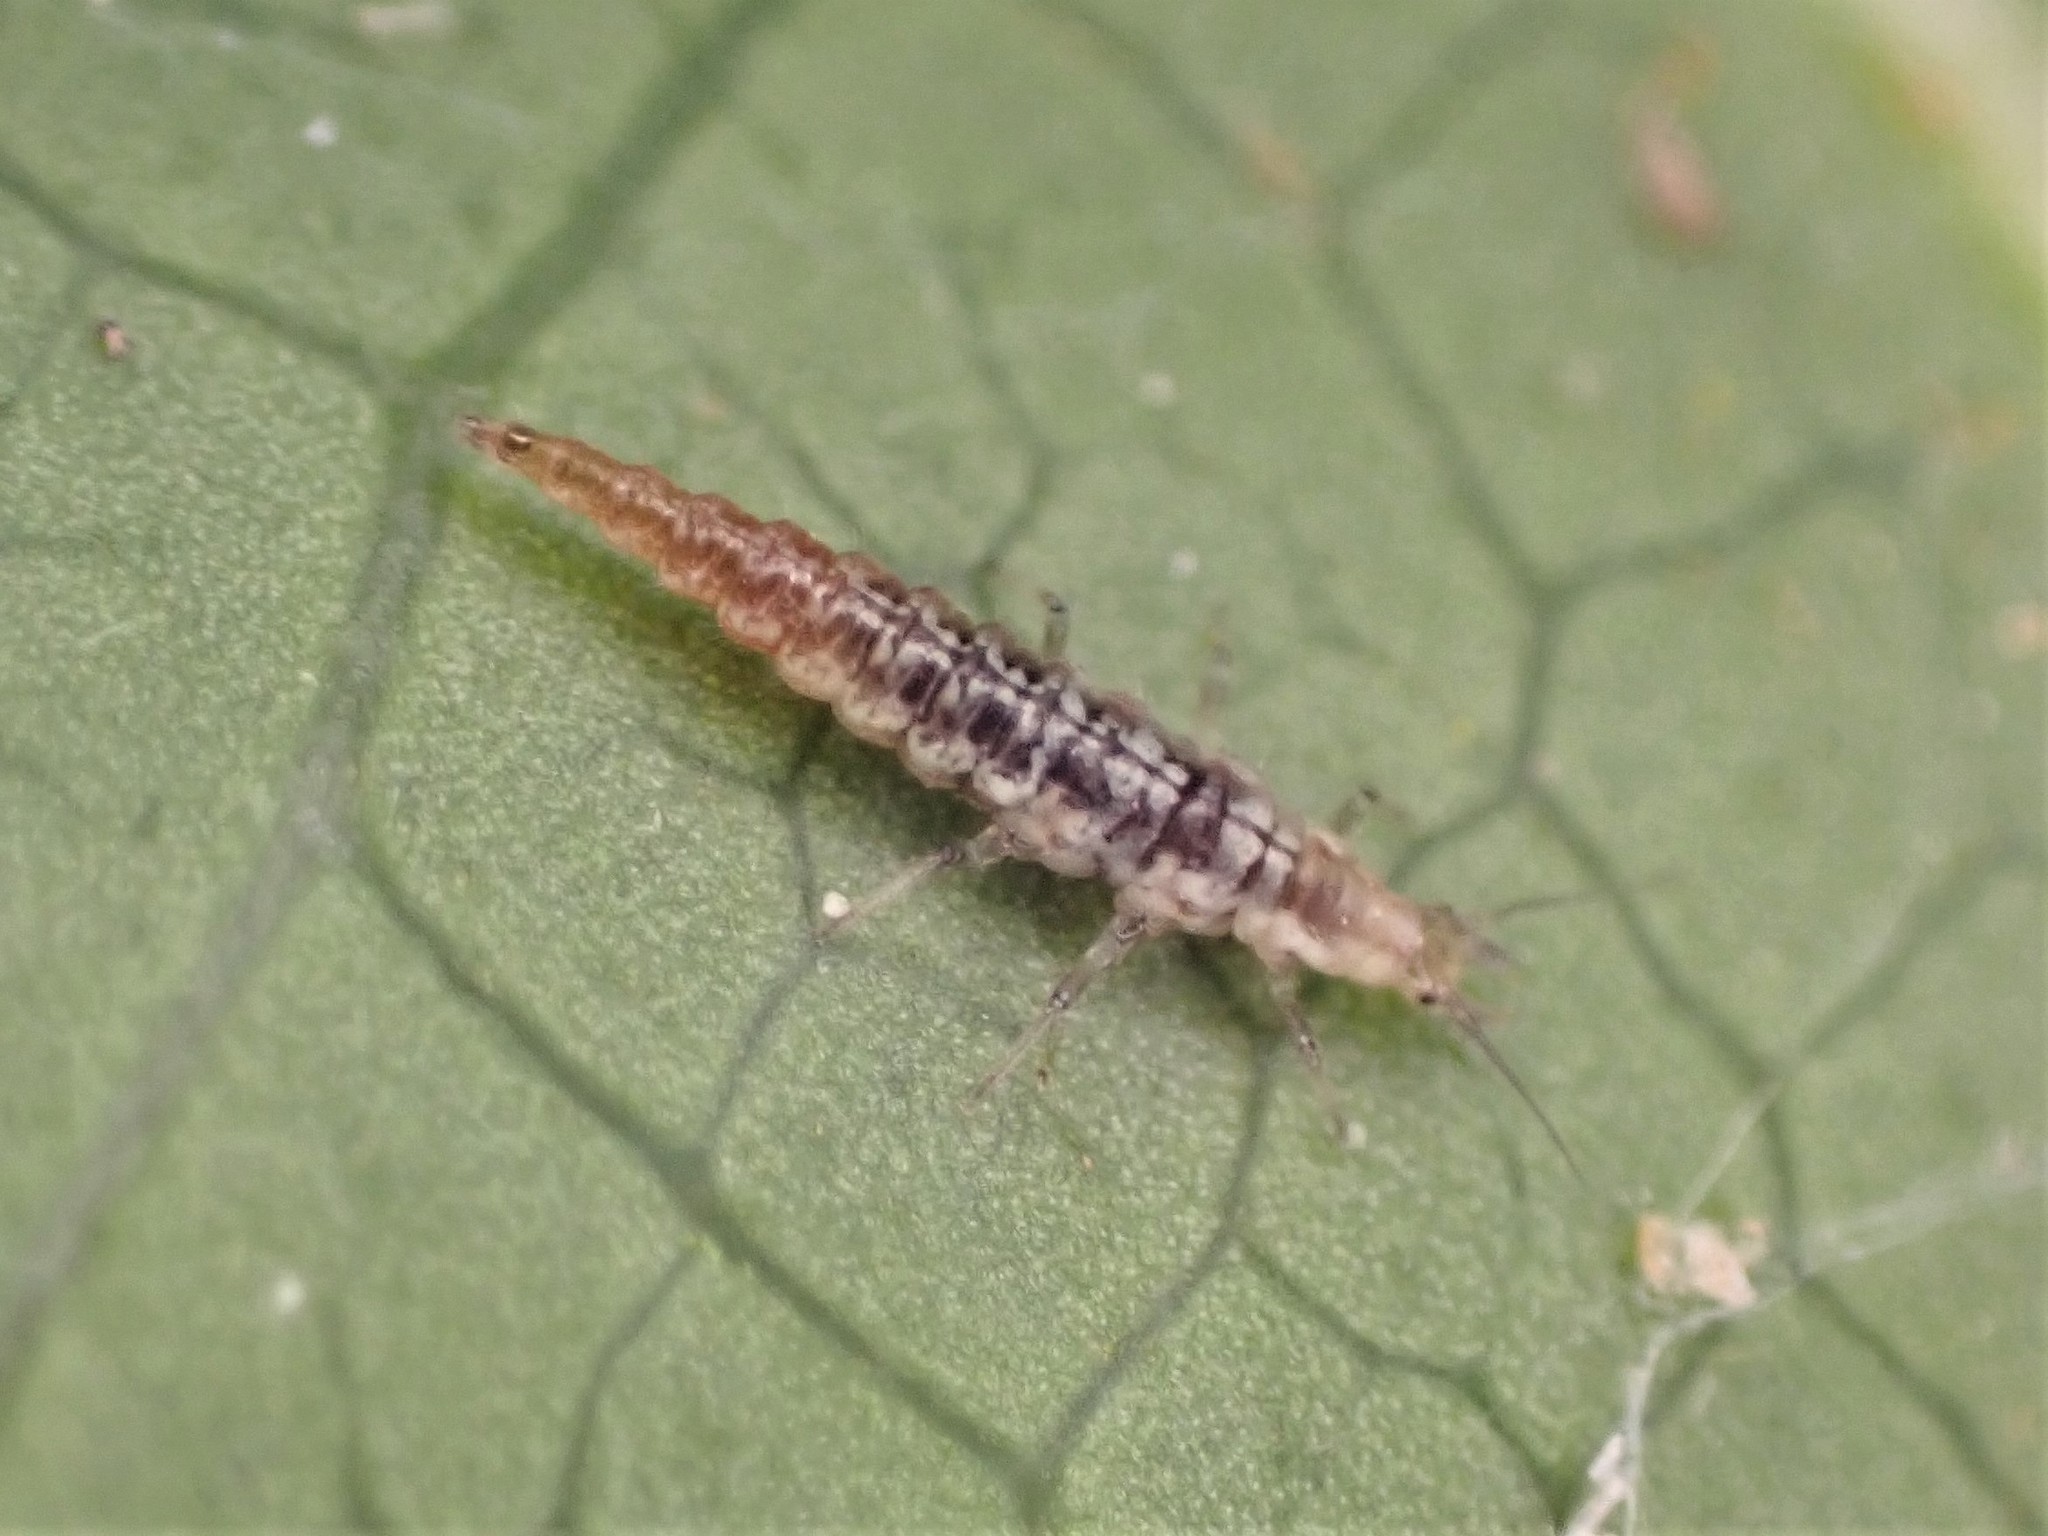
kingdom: Animalia
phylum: Arthropoda
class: Insecta
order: Neuroptera
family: Hemerobiidae
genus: Micromus
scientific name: Micromus tasmaniae
